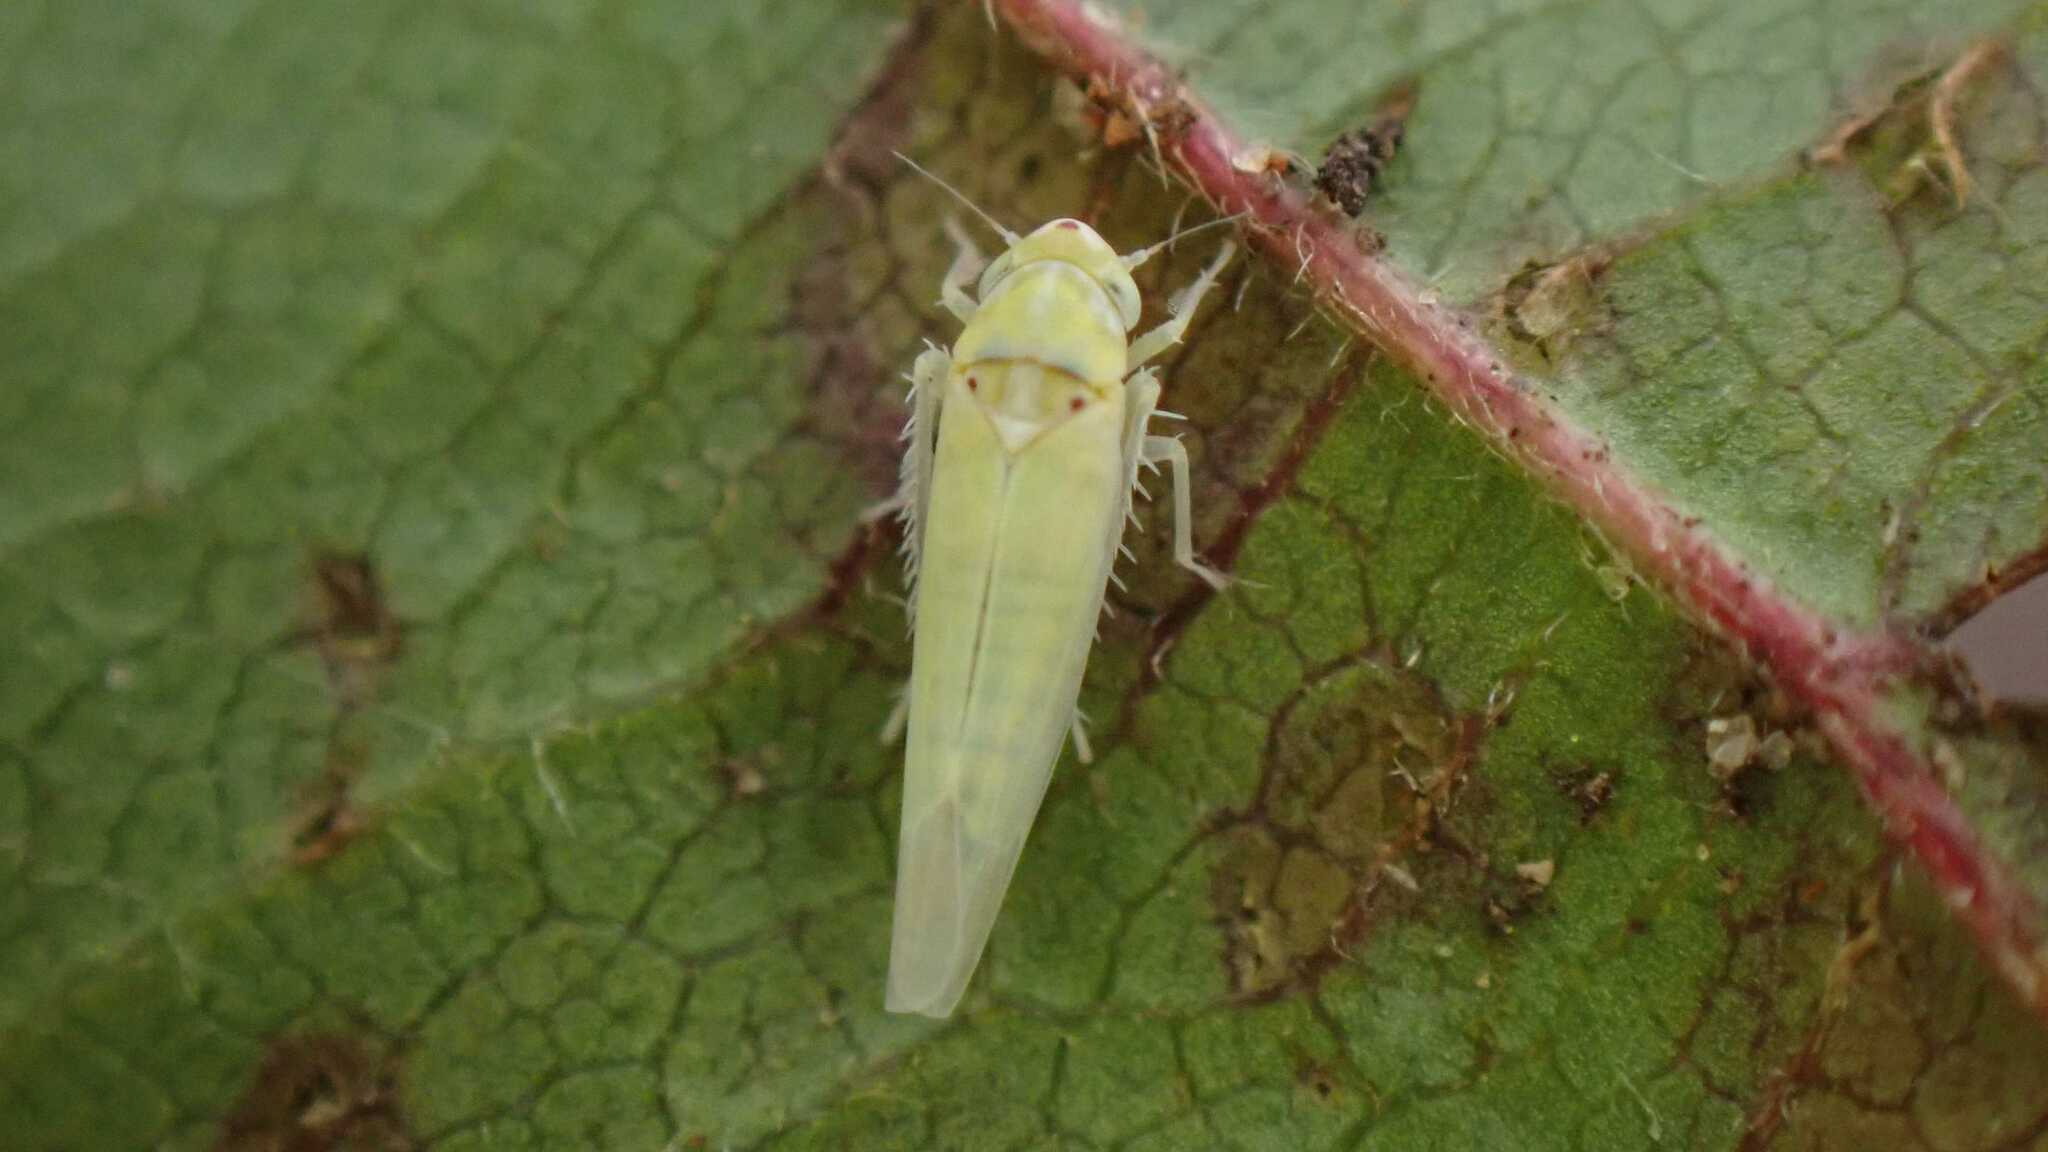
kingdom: Animalia
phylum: Arthropoda
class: Insecta
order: Hemiptera
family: Cicadellidae
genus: Zygina
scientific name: Zygina nivea
